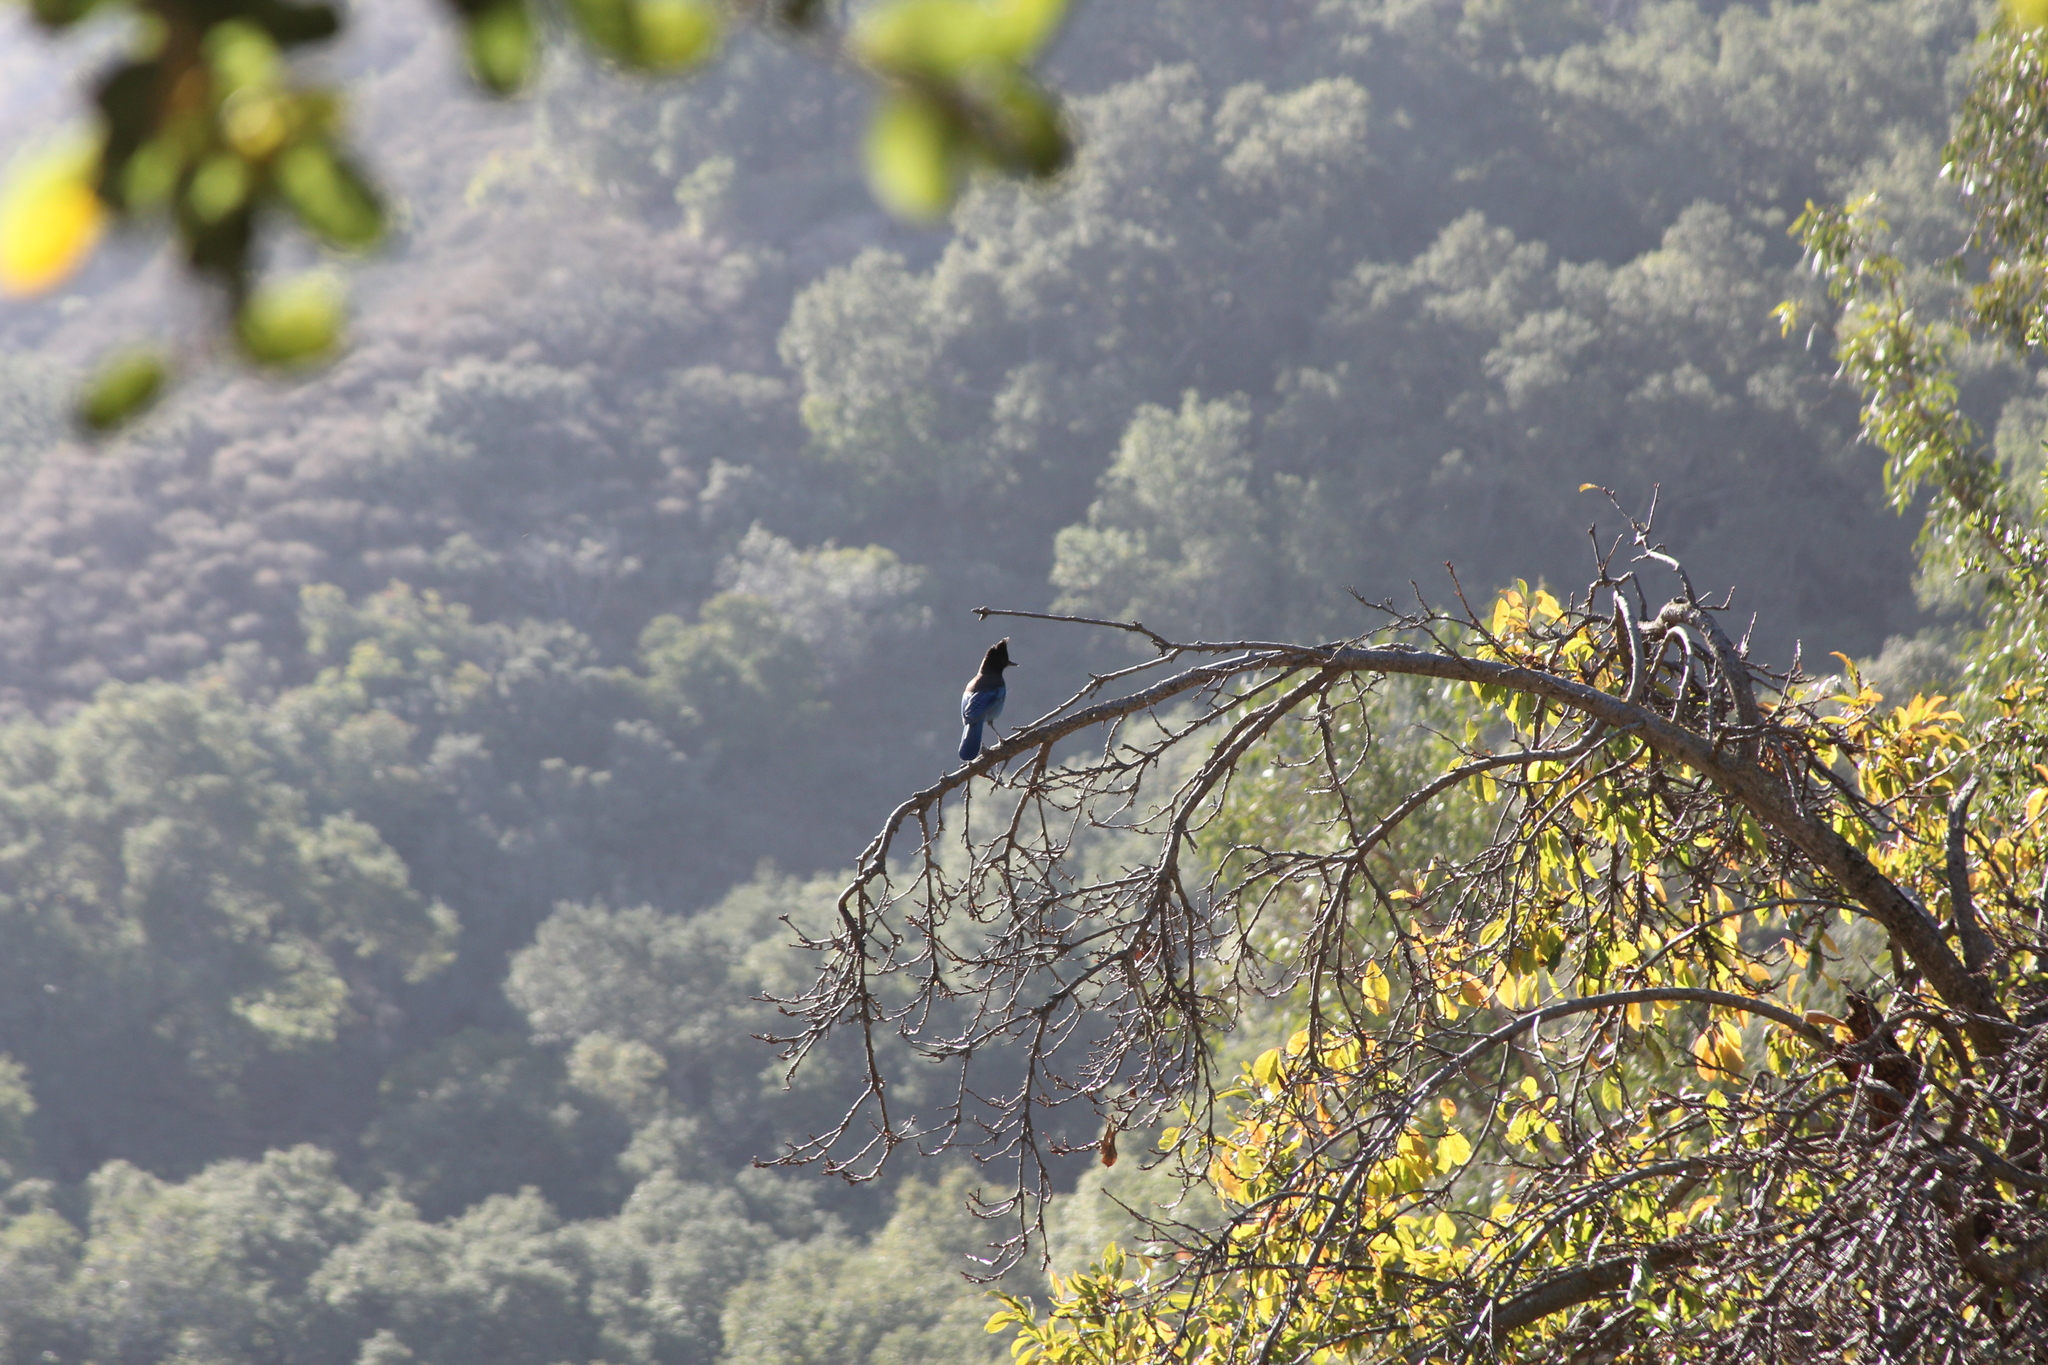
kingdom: Animalia
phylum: Chordata
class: Aves
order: Passeriformes
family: Corvidae
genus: Cyanocitta
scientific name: Cyanocitta stelleri
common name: Steller's jay
